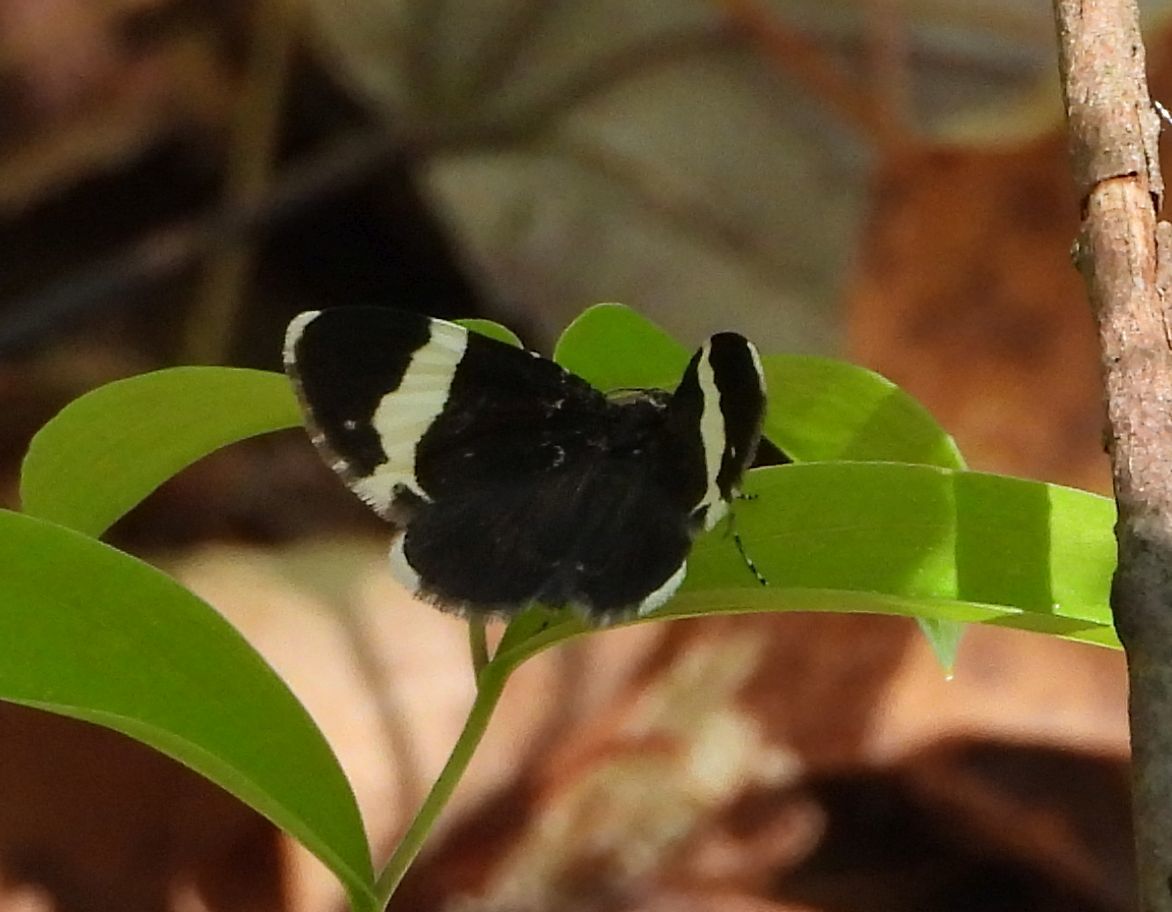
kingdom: Animalia
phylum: Arthropoda
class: Insecta
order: Lepidoptera
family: Geometridae
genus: Trichodezia
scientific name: Trichodezia albovittata
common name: White striped black
